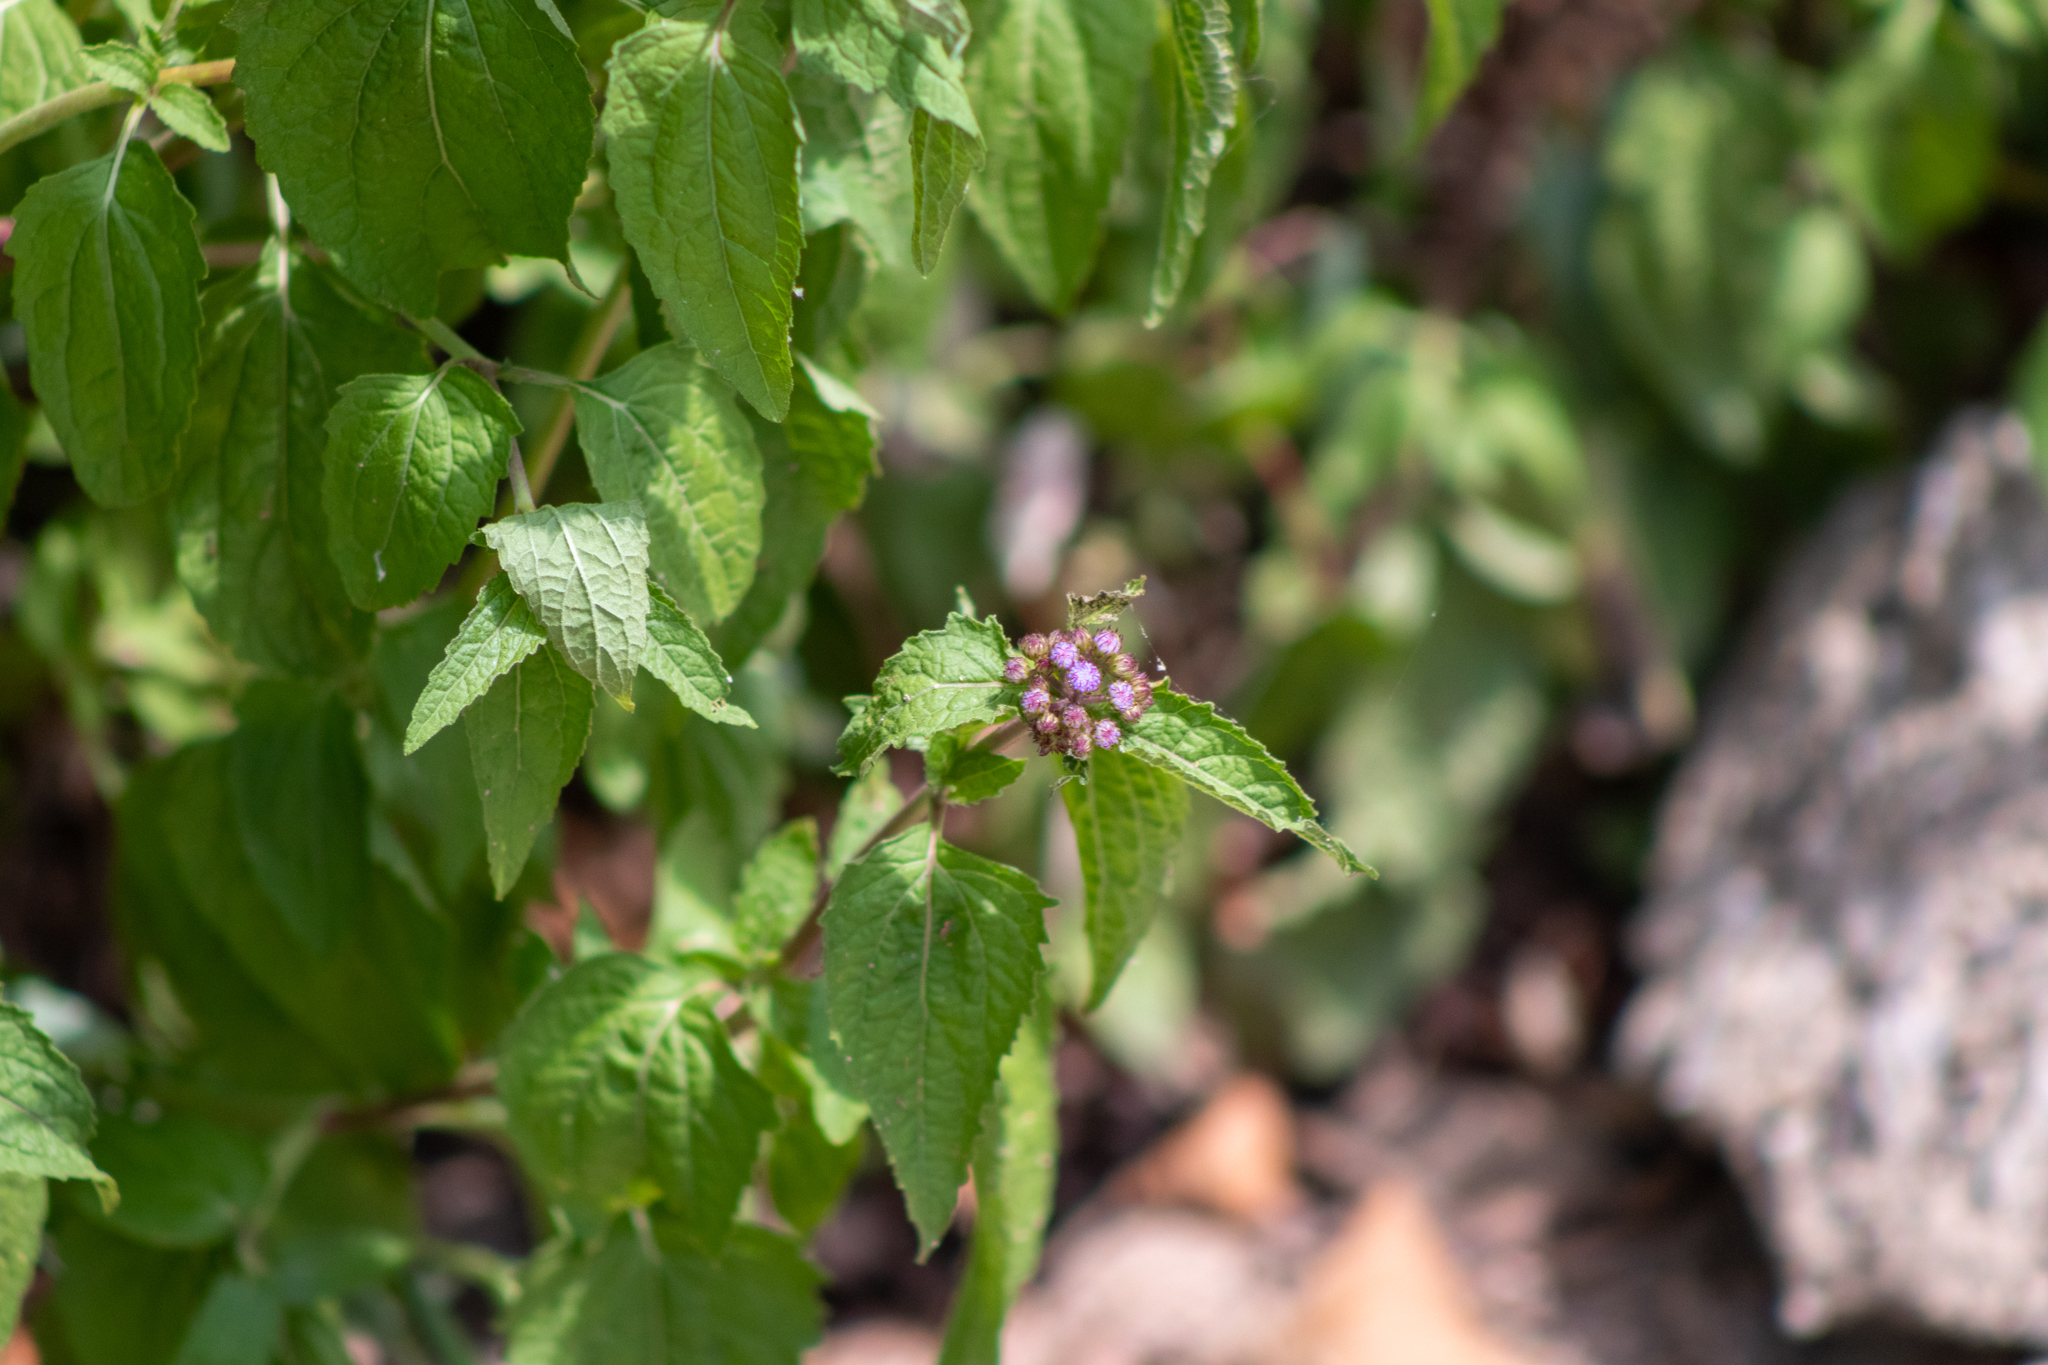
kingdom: Plantae
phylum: Tracheophyta
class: Magnoliopsida
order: Asterales
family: Asteraceae
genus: Conoclinium
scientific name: Conoclinium coelestinum
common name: Blue mistflower
